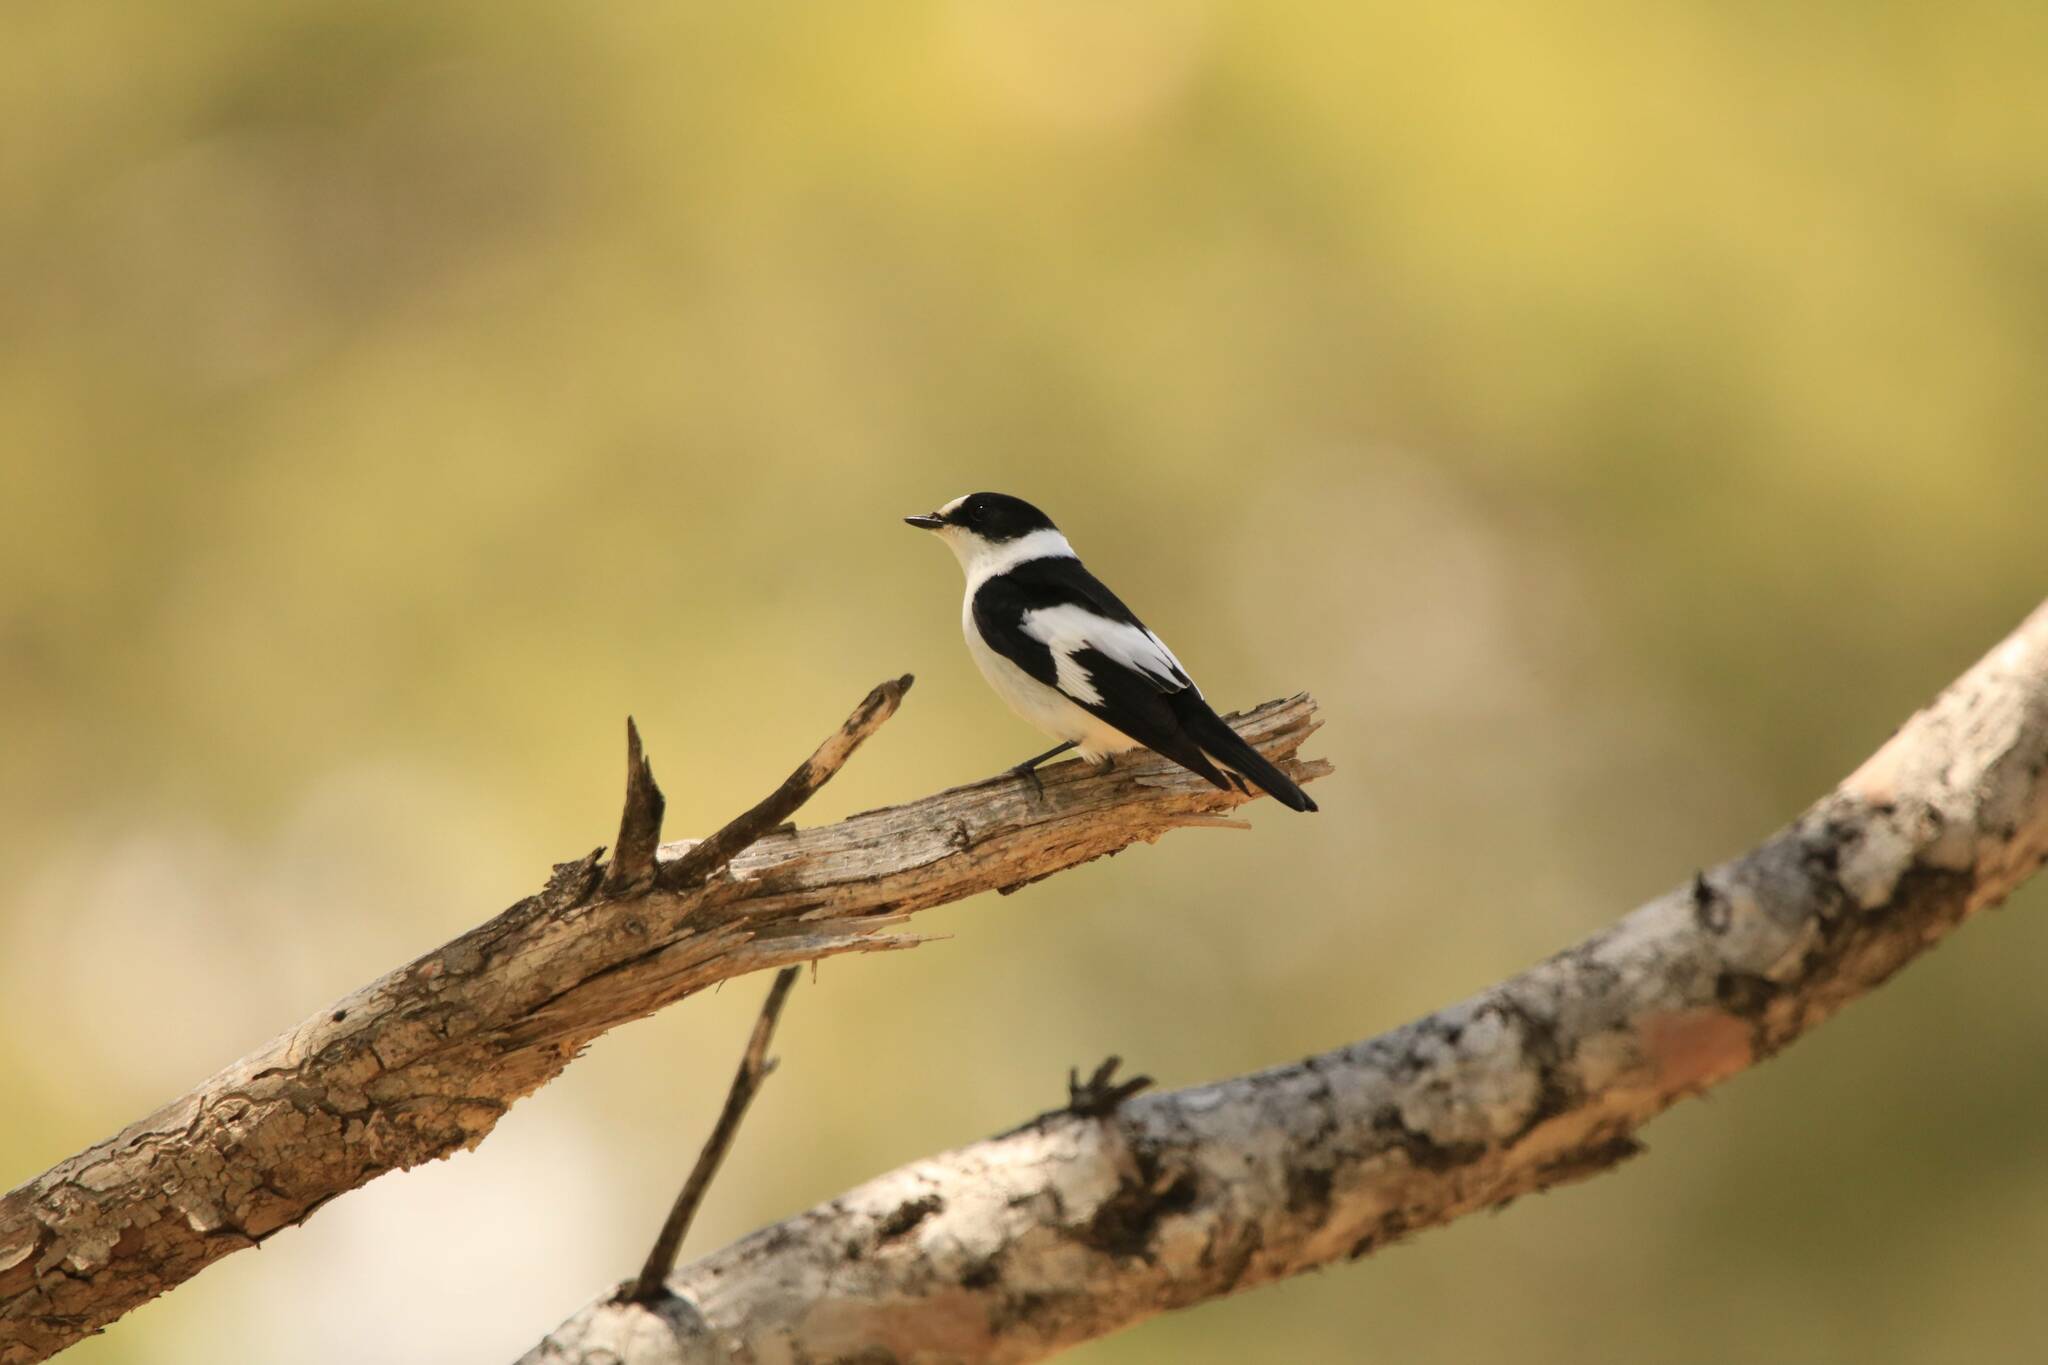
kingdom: Animalia
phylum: Chordata
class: Aves
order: Passeriformes
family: Muscicapidae
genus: Ficedula
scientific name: Ficedula albicollis
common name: Collared flycatcher
